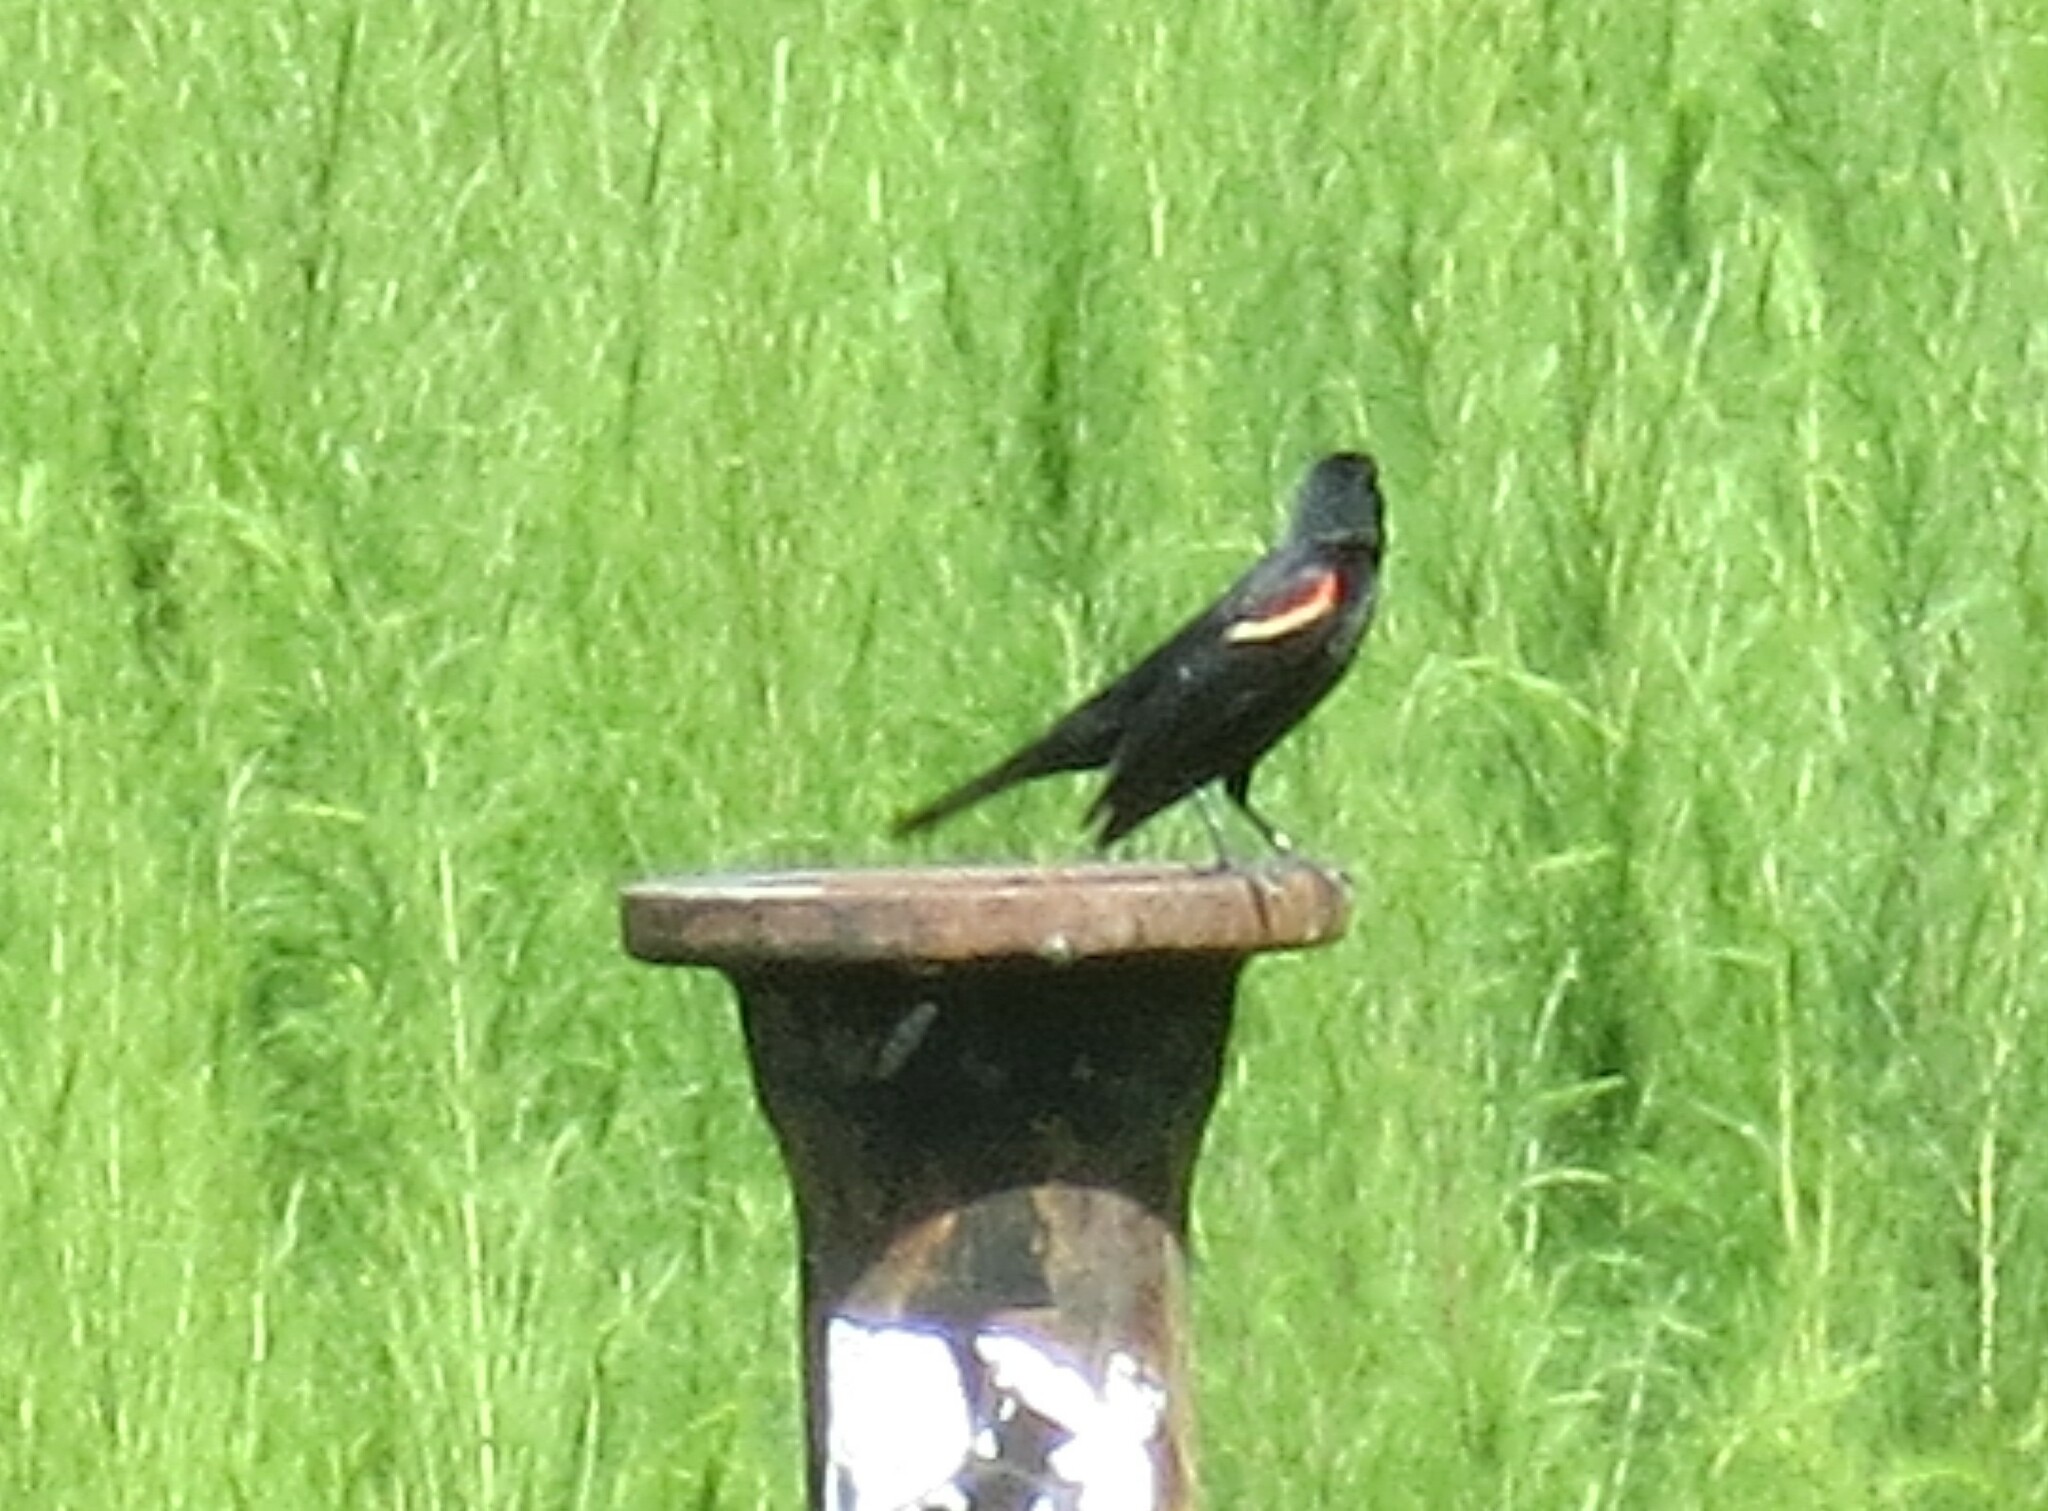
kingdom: Animalia
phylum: Chordata
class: Aves
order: Passeriformes
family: Icteridae
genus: Agelaius
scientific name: Agelaius phoeniceus
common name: Red-winged blackbird
